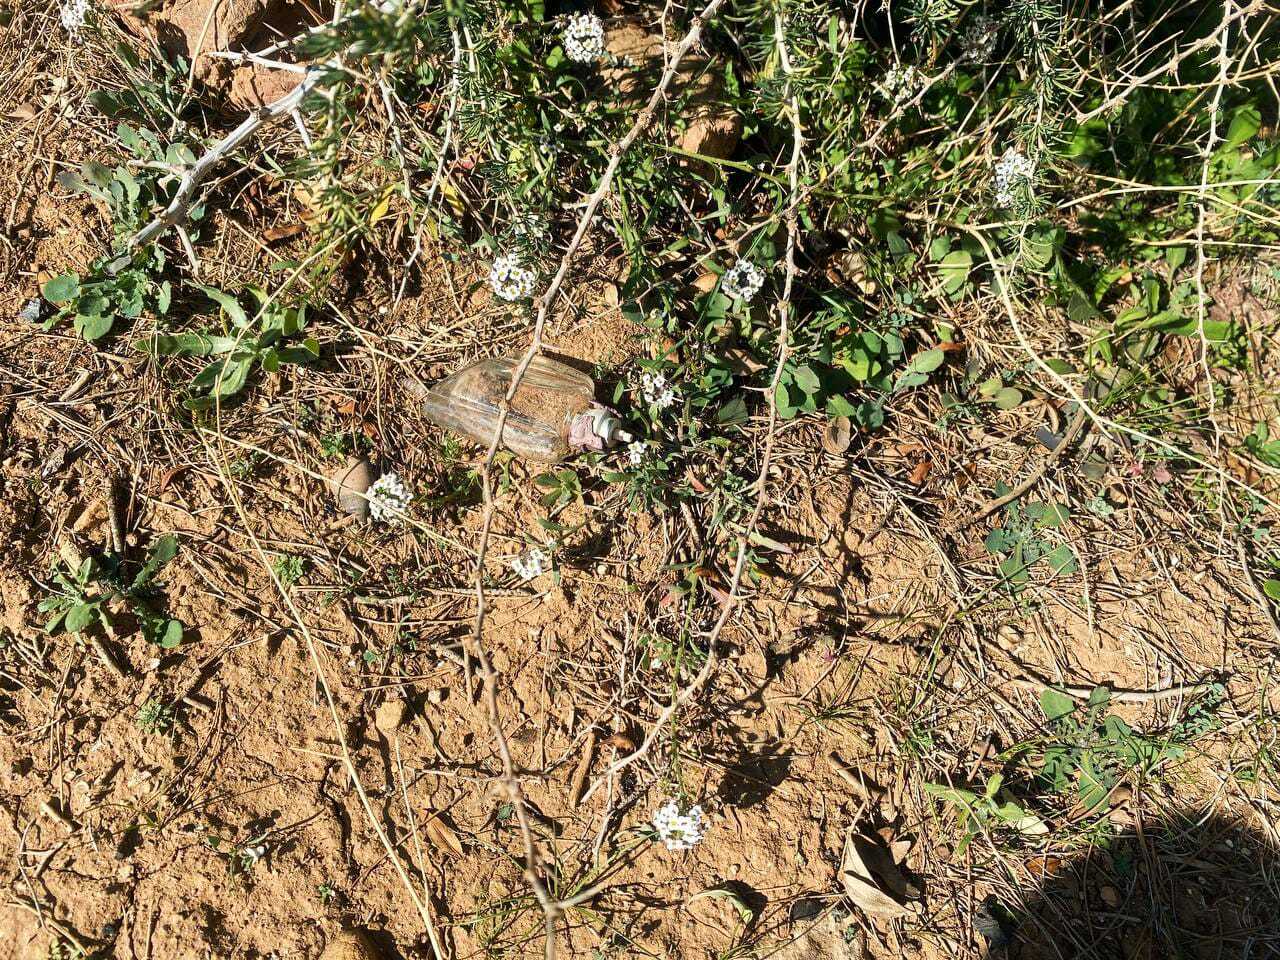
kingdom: Plantae
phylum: Tracheophyta
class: Magnoliopsida
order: Brassicales
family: Brassicaceae
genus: Lobularia
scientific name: Lobularia maritima
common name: Sweet alison
